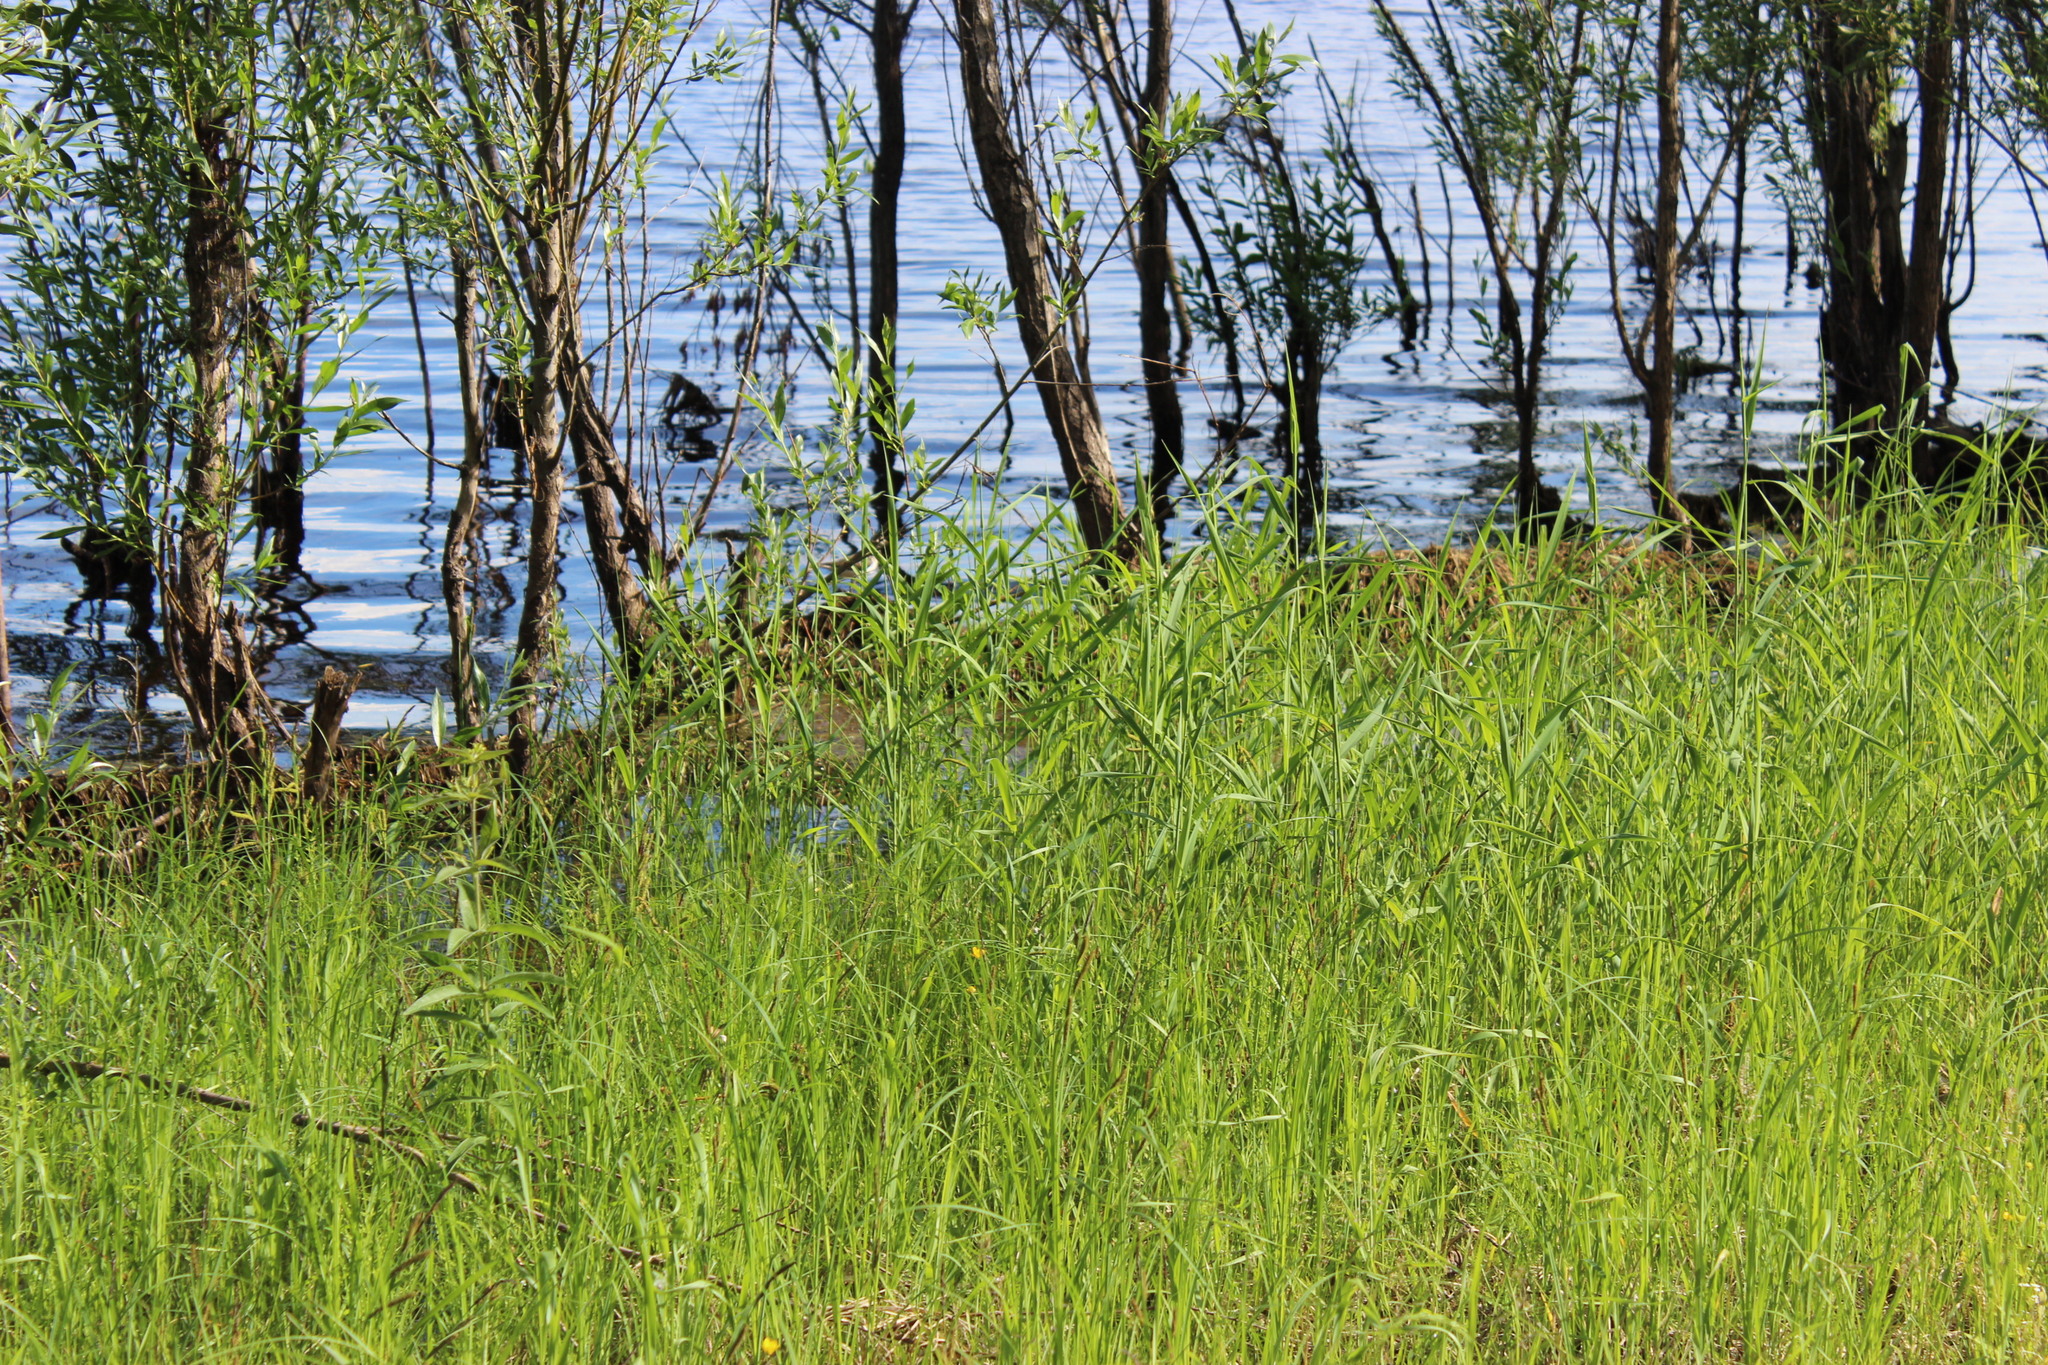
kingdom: Animalia
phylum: Chordata
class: Aves
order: Charadriiformes
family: Scolopacidae
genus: Actitis
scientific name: Actitis hypoleucos
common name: Common sandpiper
